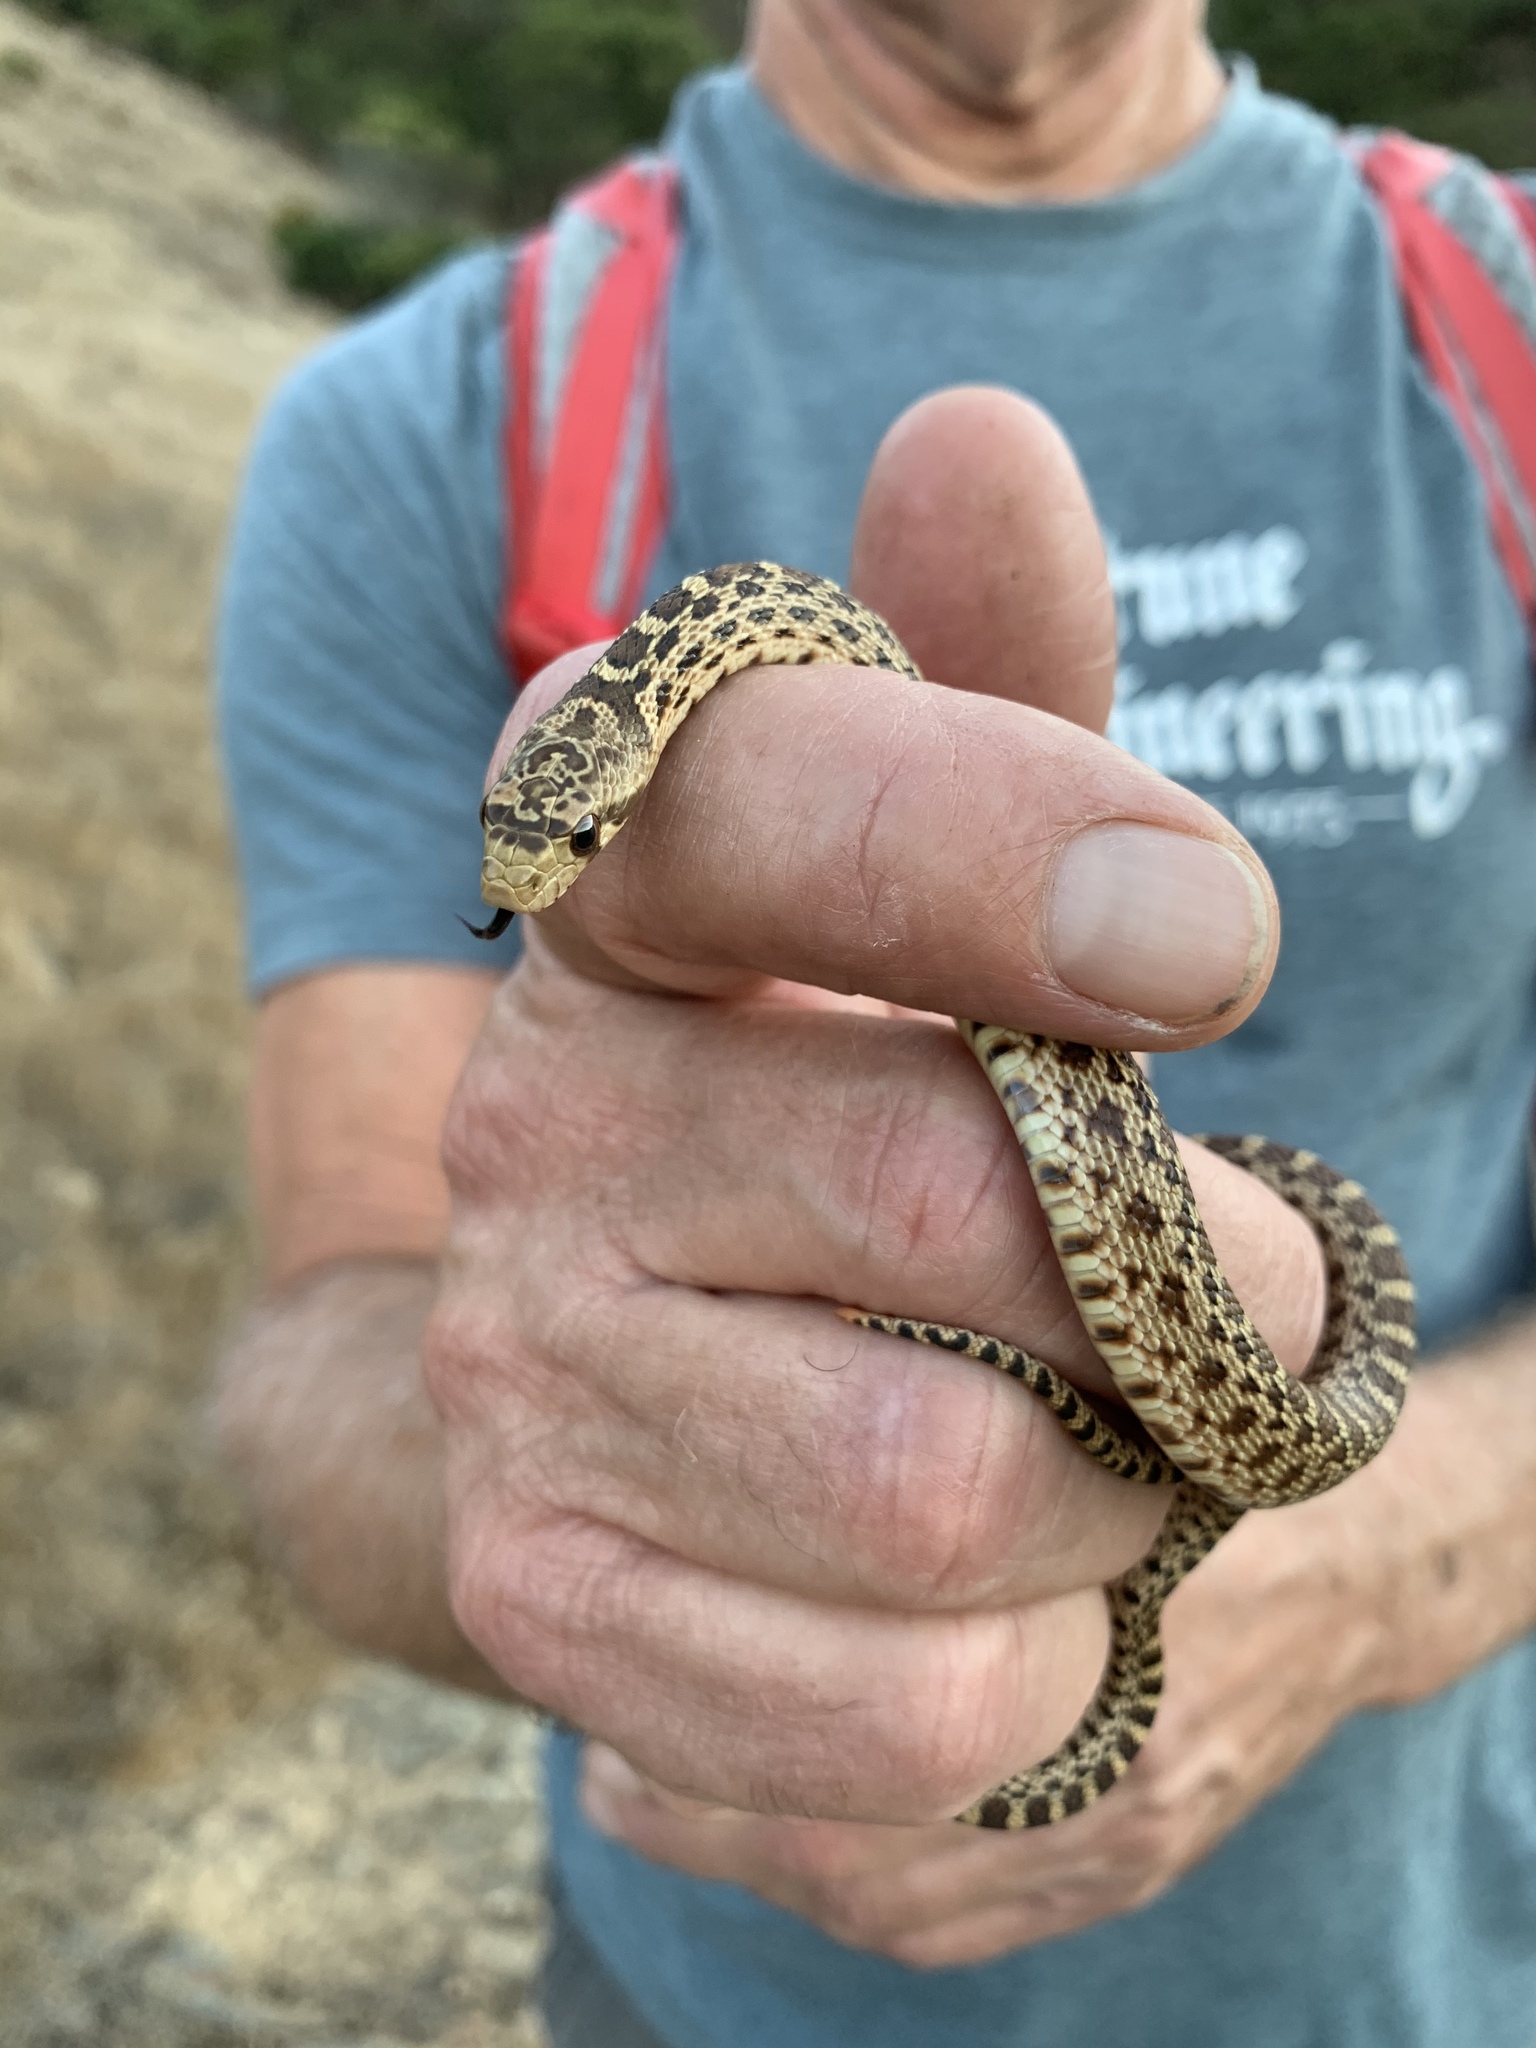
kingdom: Animalia
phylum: Chordata
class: Squamata
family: Colubridae
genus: Pituophis
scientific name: Pituophis catenifer
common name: Gopher snake
